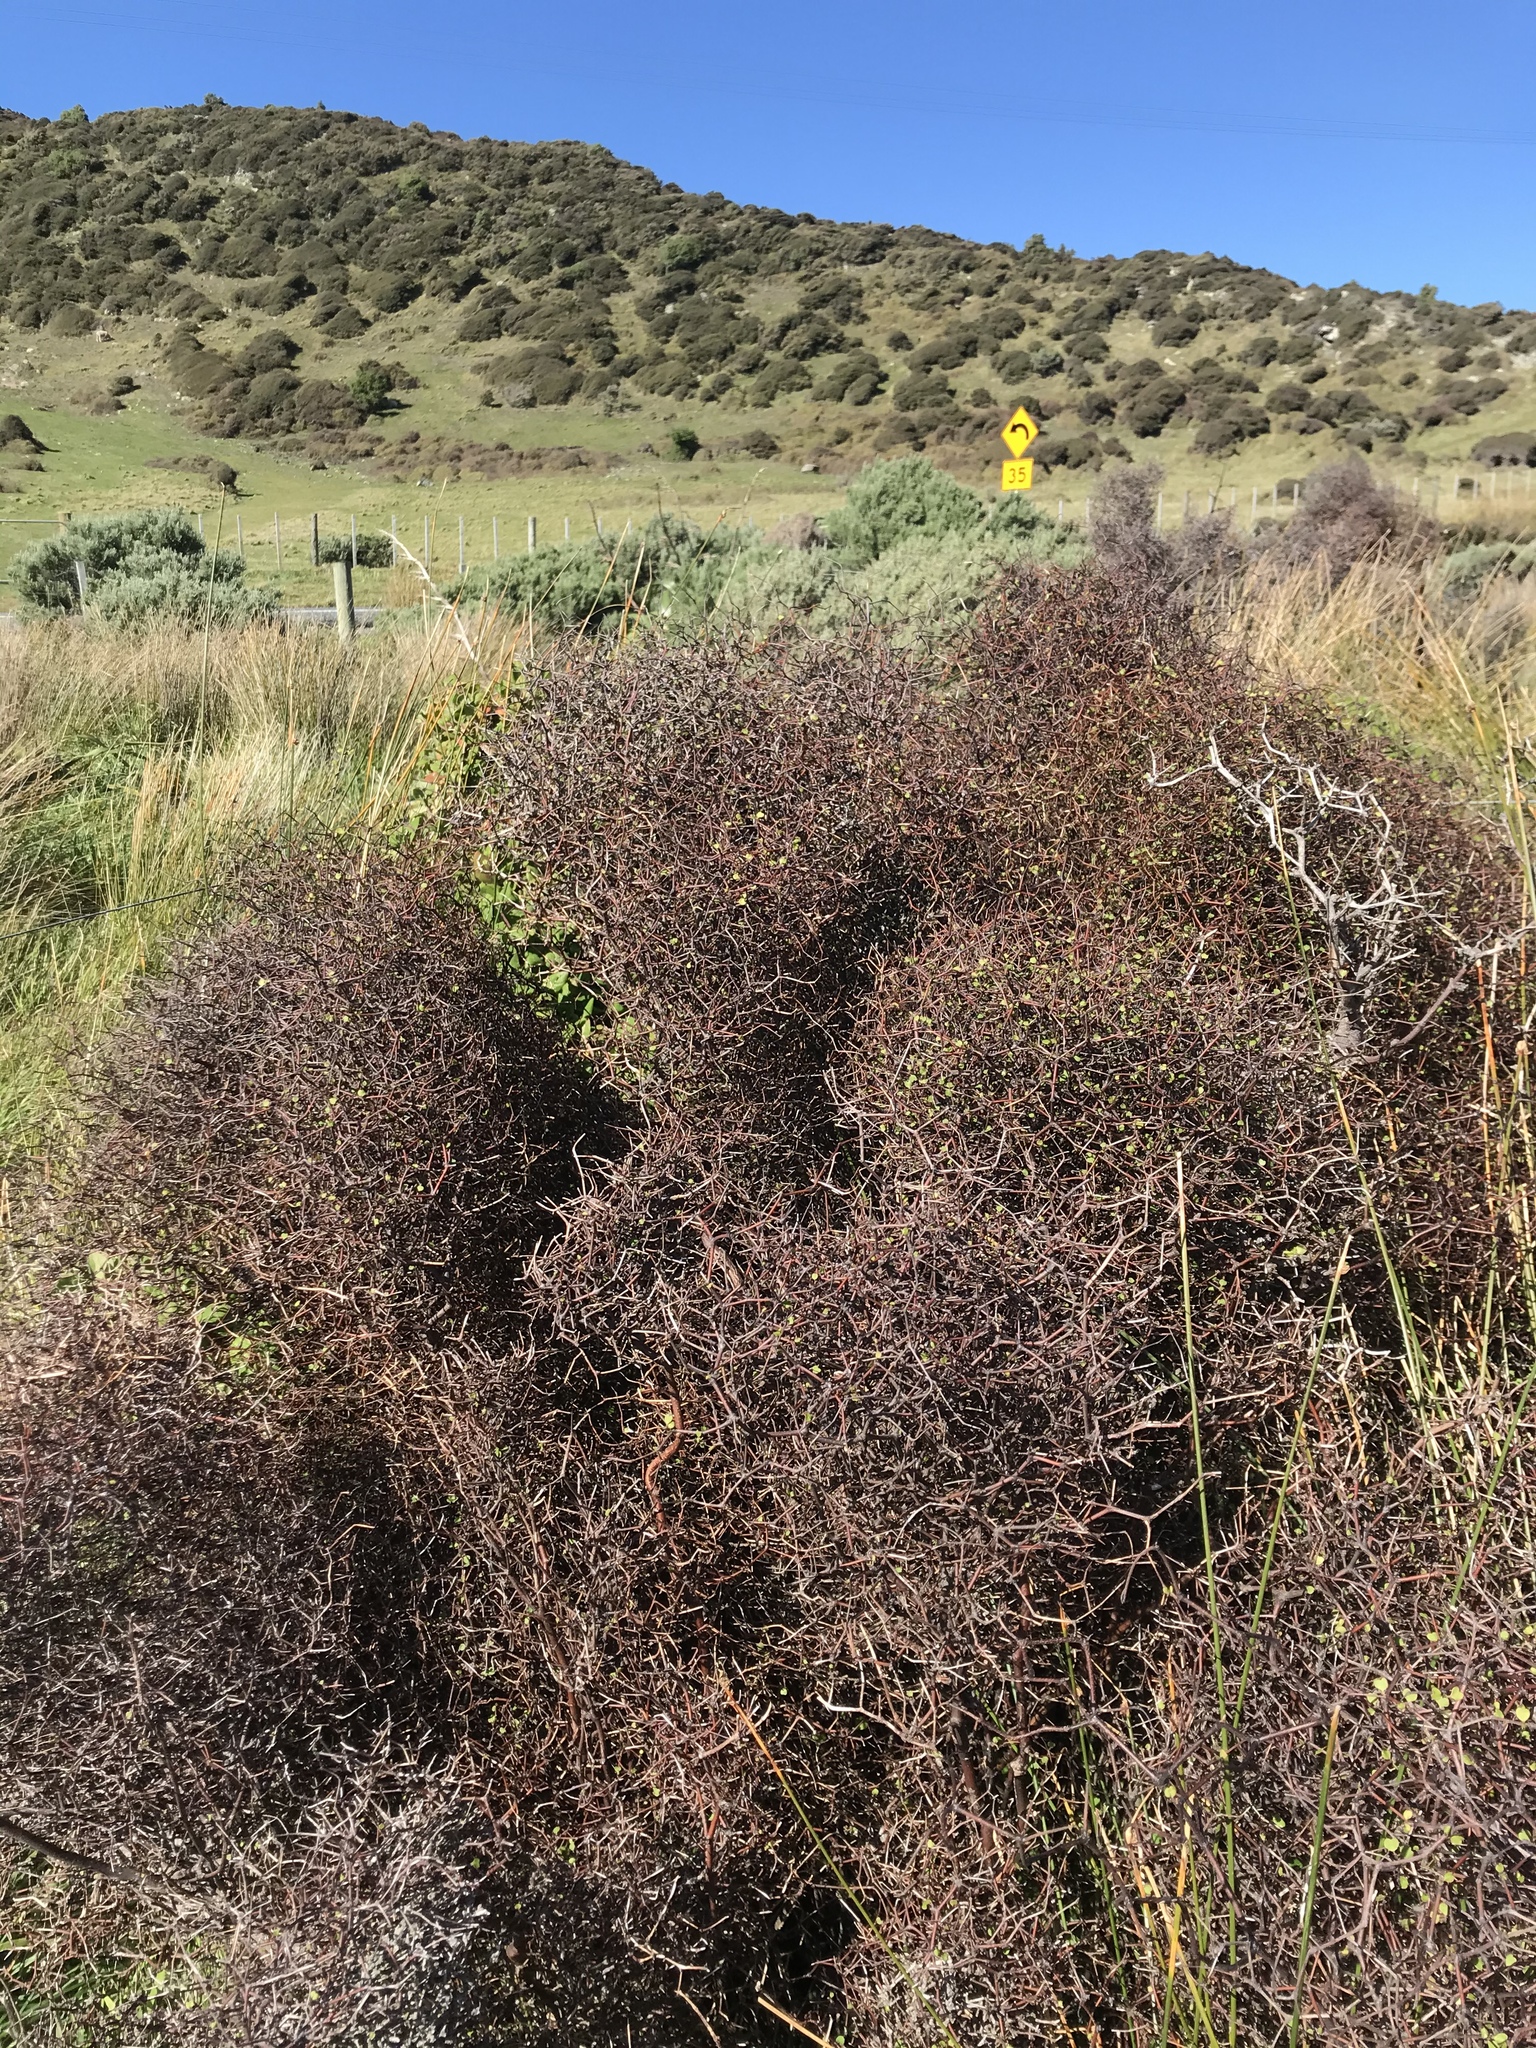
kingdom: Plantae
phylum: Tracheophyta
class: Magnoliopsida
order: Caryophyllales
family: Polygonaceae
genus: Muehlenbeckia
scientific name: Muehlenbeckia astonii
